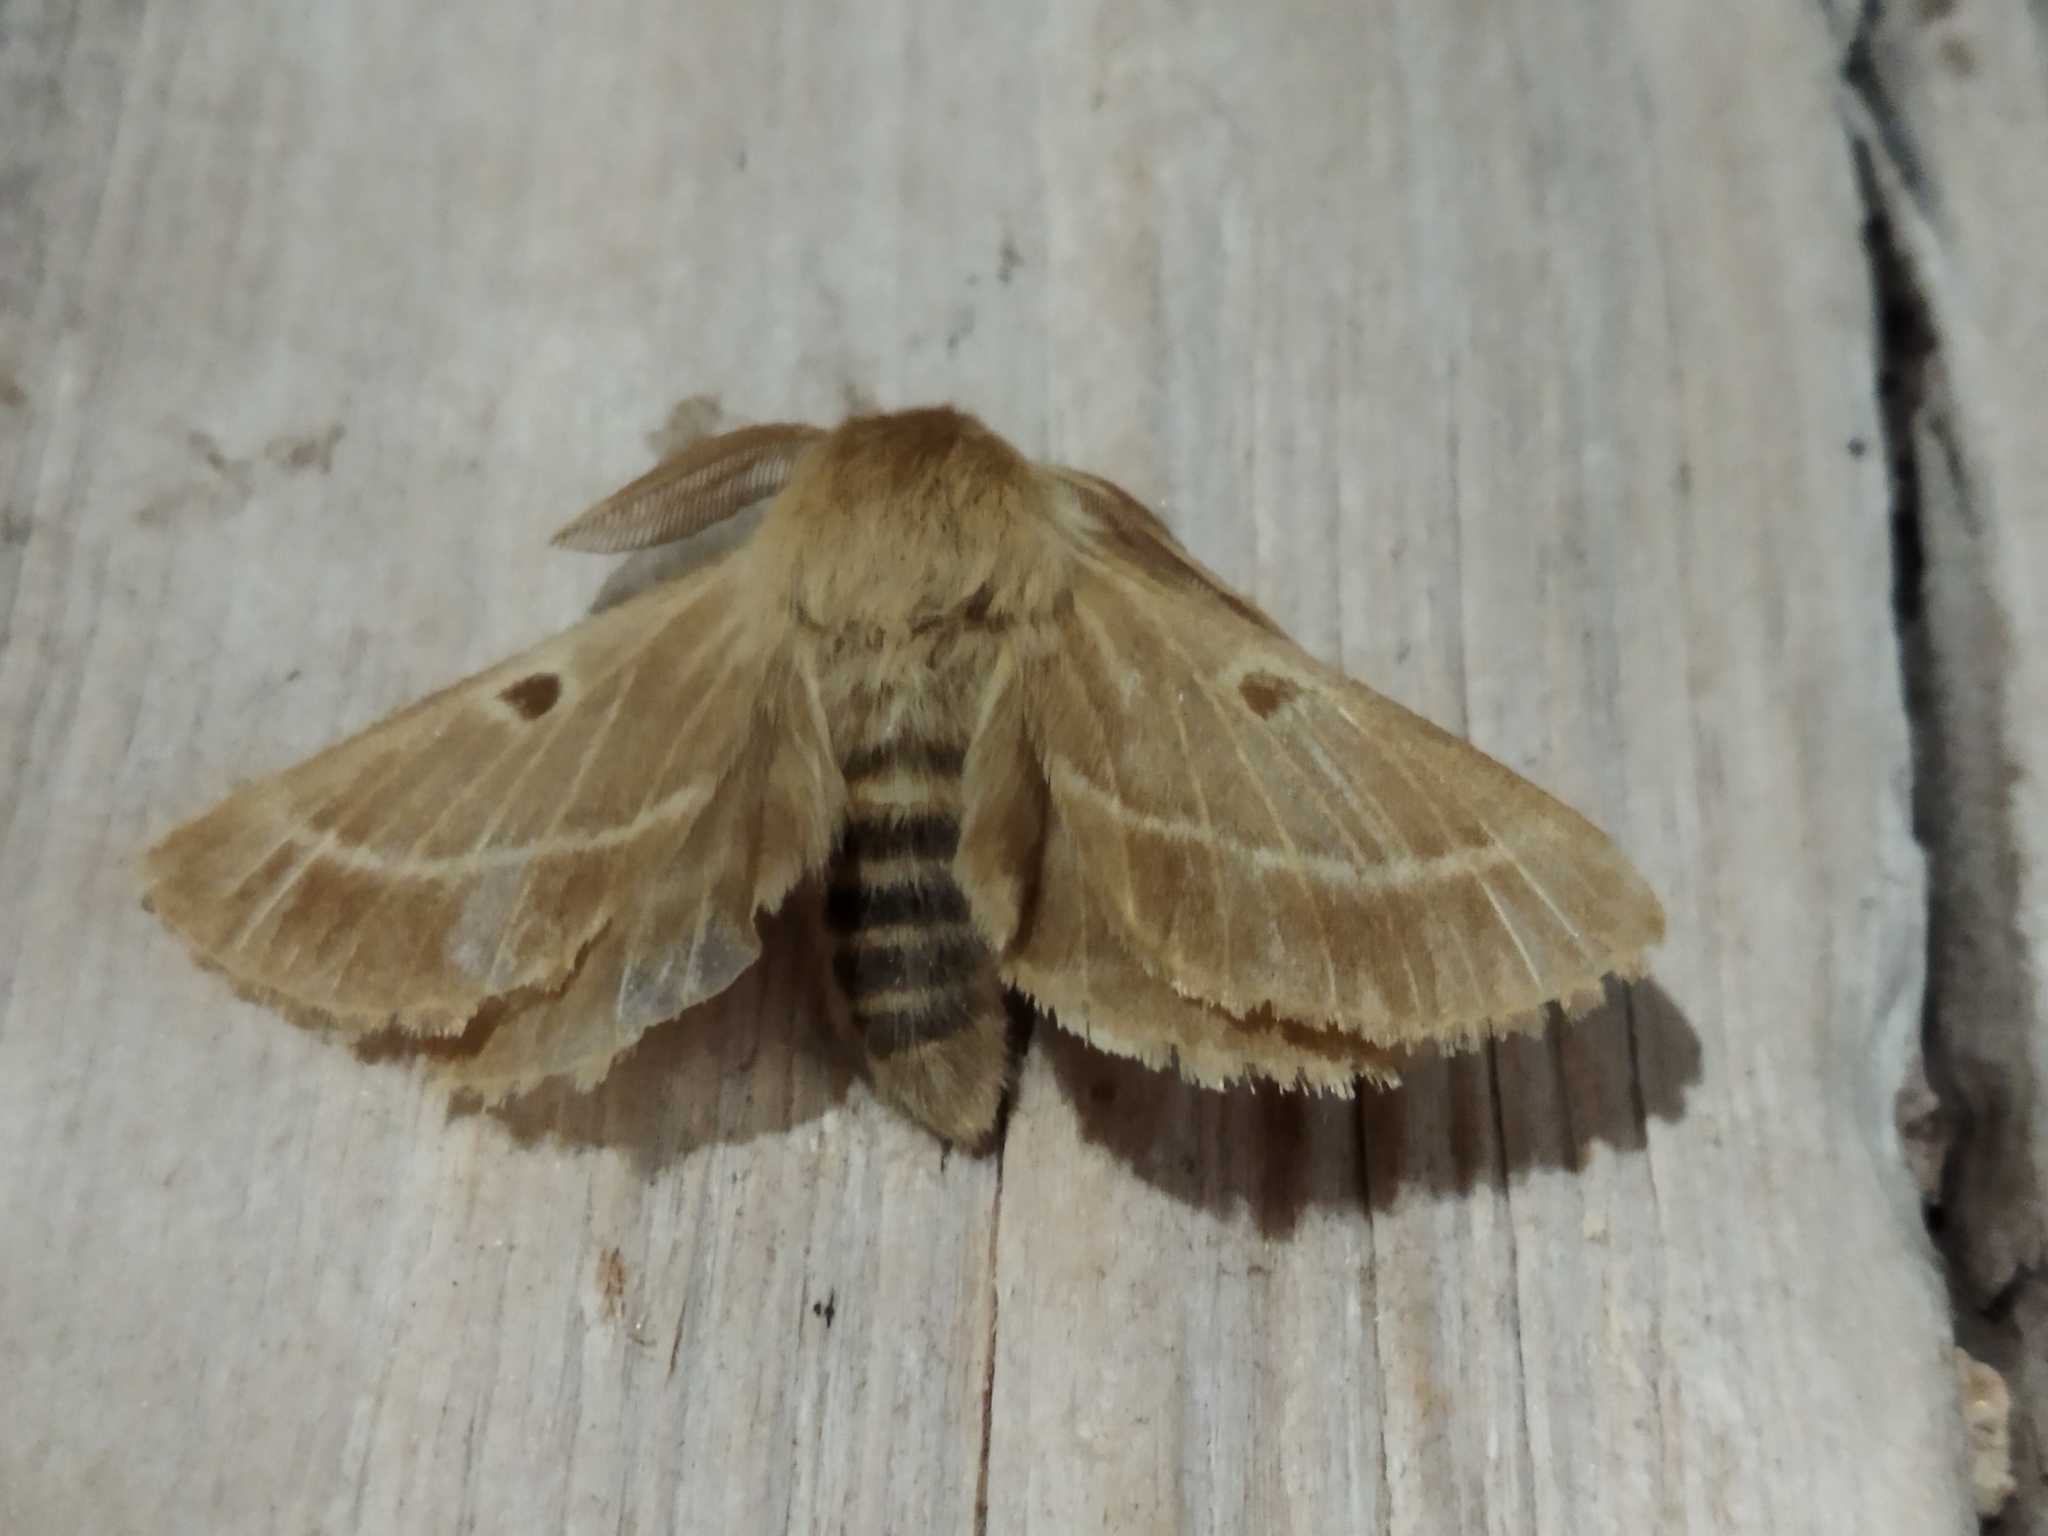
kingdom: Animalia
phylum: Arthropoda
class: Insecta
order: Lepidoptera
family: Brahmaeidae
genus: Lemonia
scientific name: Lemonia balcanica
